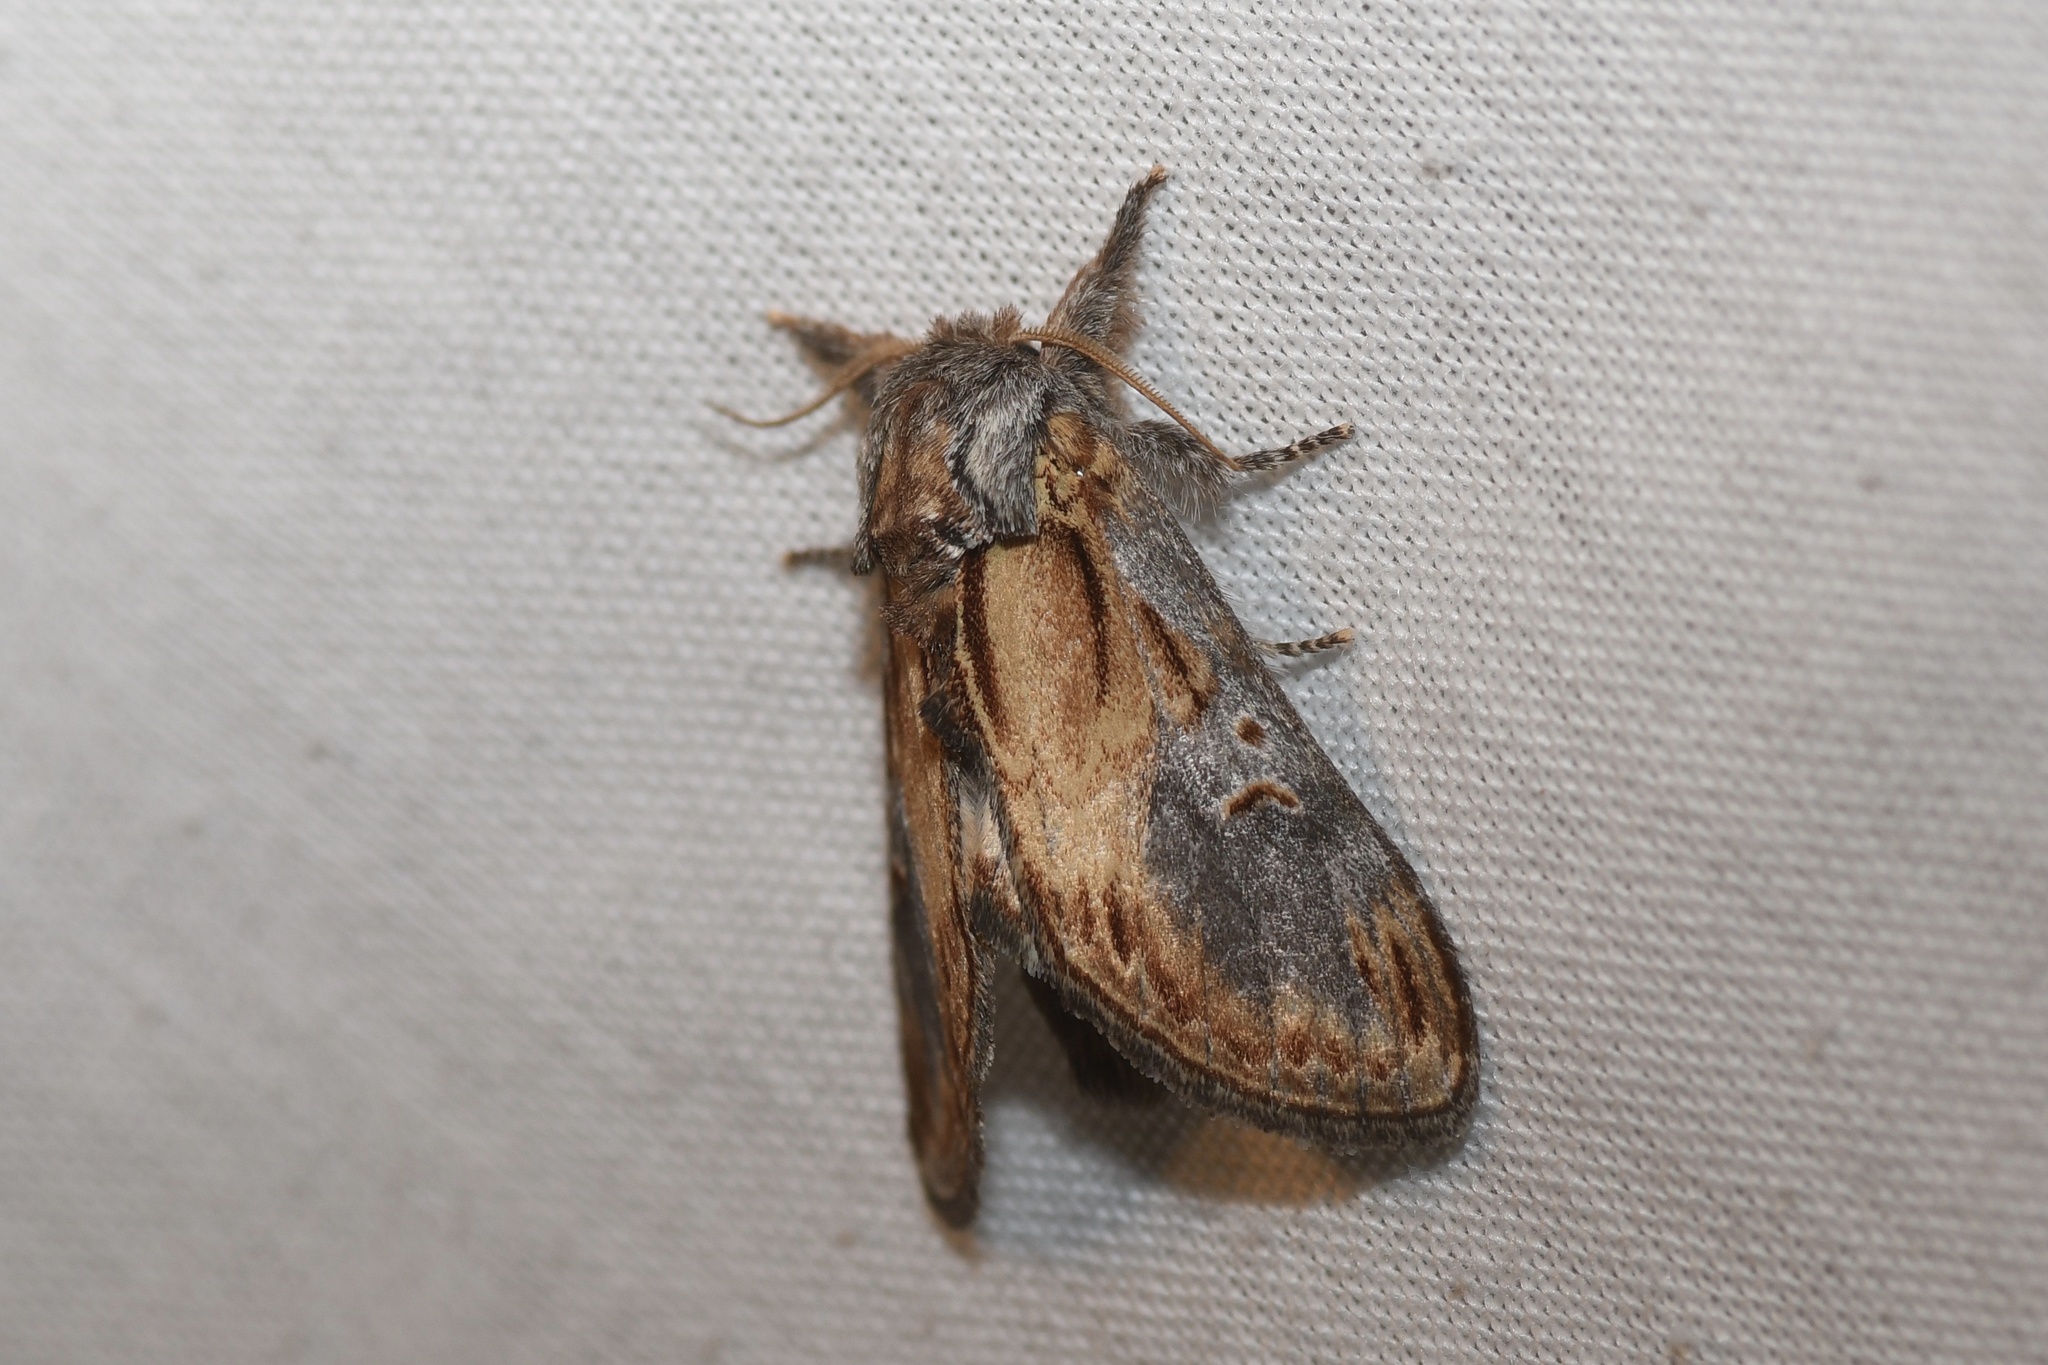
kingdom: Animalia
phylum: Arthropoda
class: Insecta
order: Lepidoptera
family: Notodontidae
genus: Notodonta
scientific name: Notodonta scitipennis
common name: Finned-willow prominent moth
